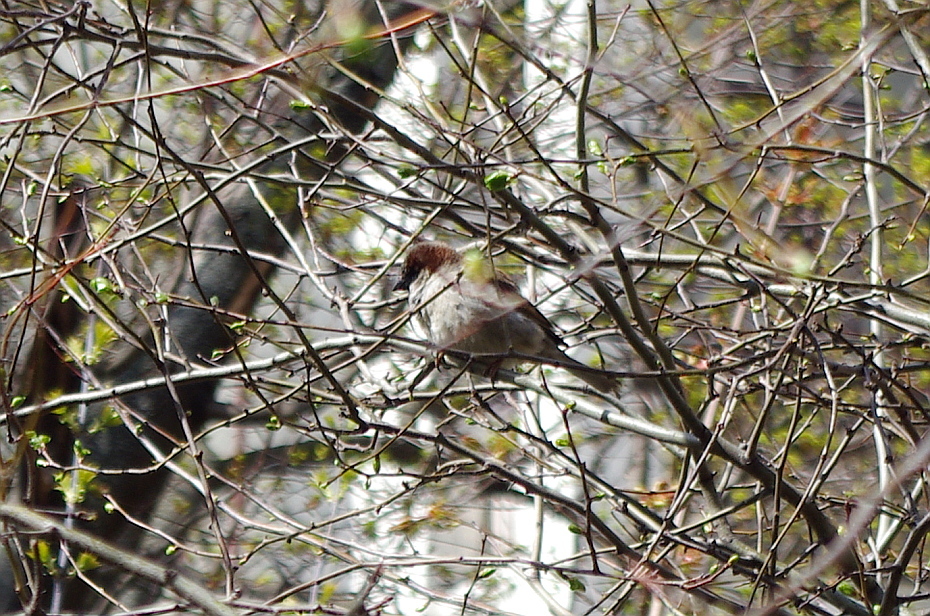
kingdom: Animalia
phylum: Chordata
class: Aves
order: Passeriformes
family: Passeridae
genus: Passer
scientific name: Passer domesticus
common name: House sparrow
